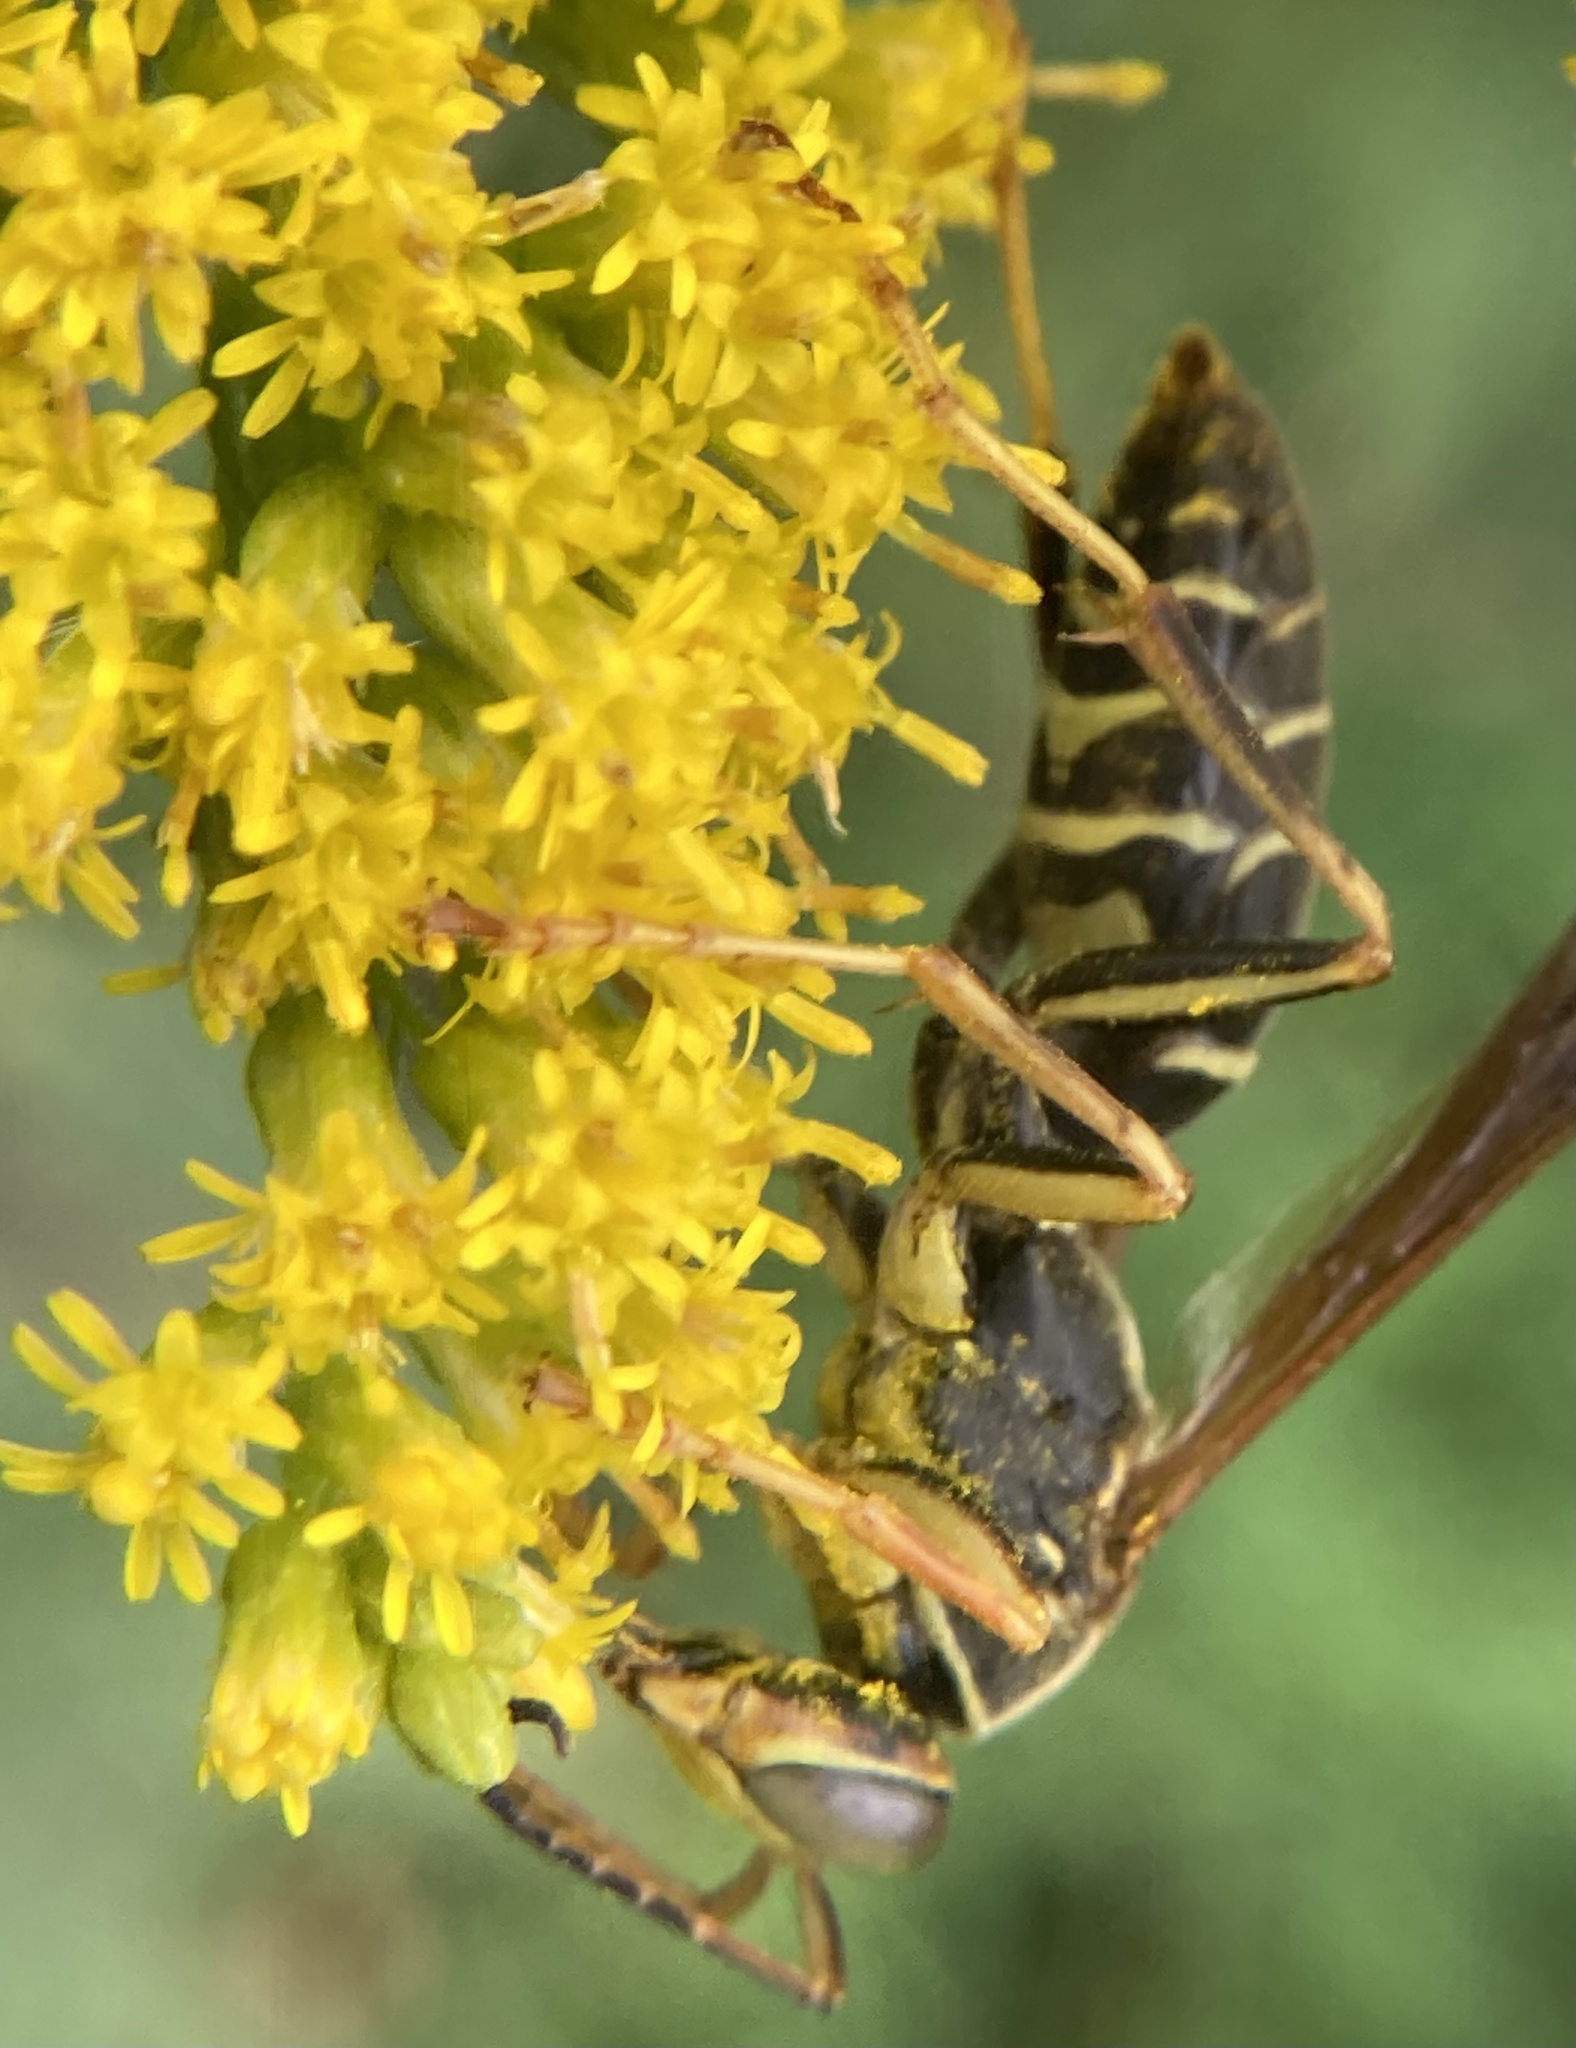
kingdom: Animalia
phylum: Arthropoda
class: Insecta
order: Hymenoptera
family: Eumenidae
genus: Polistes
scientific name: Polistes fuscatus
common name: Dark paper wasp
